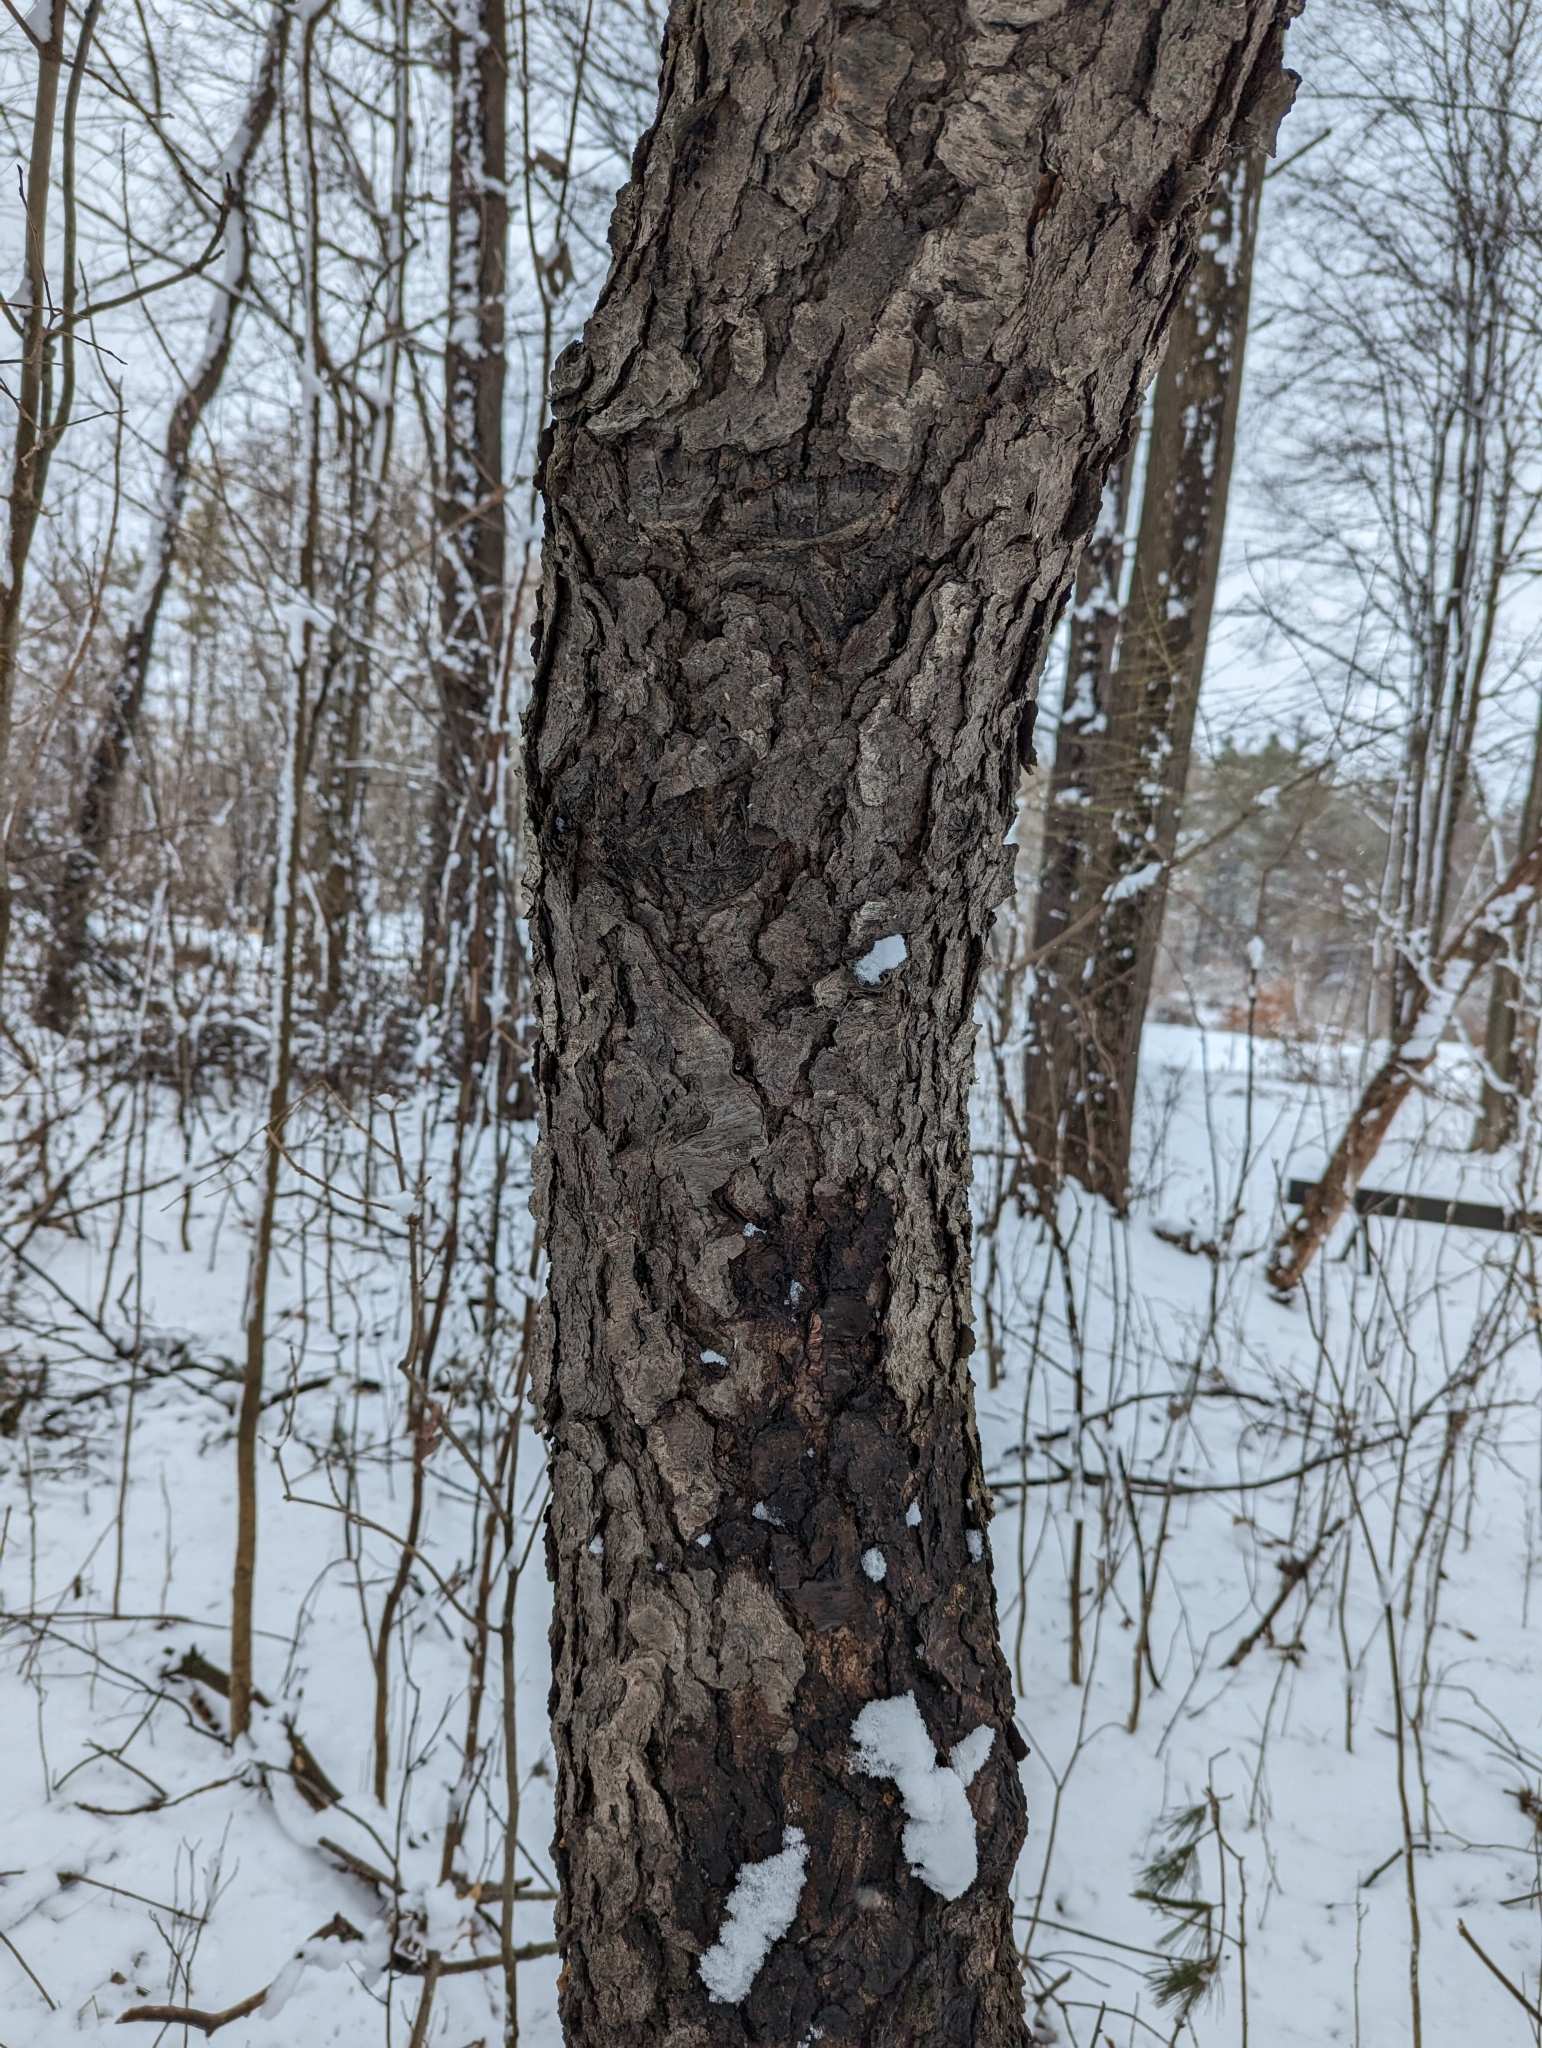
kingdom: Plantae
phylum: Tracheophyta
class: Magnoliopsida
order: Rosales
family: Rosaceae
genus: Prunus
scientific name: Prunus serotina
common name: Black cherry
